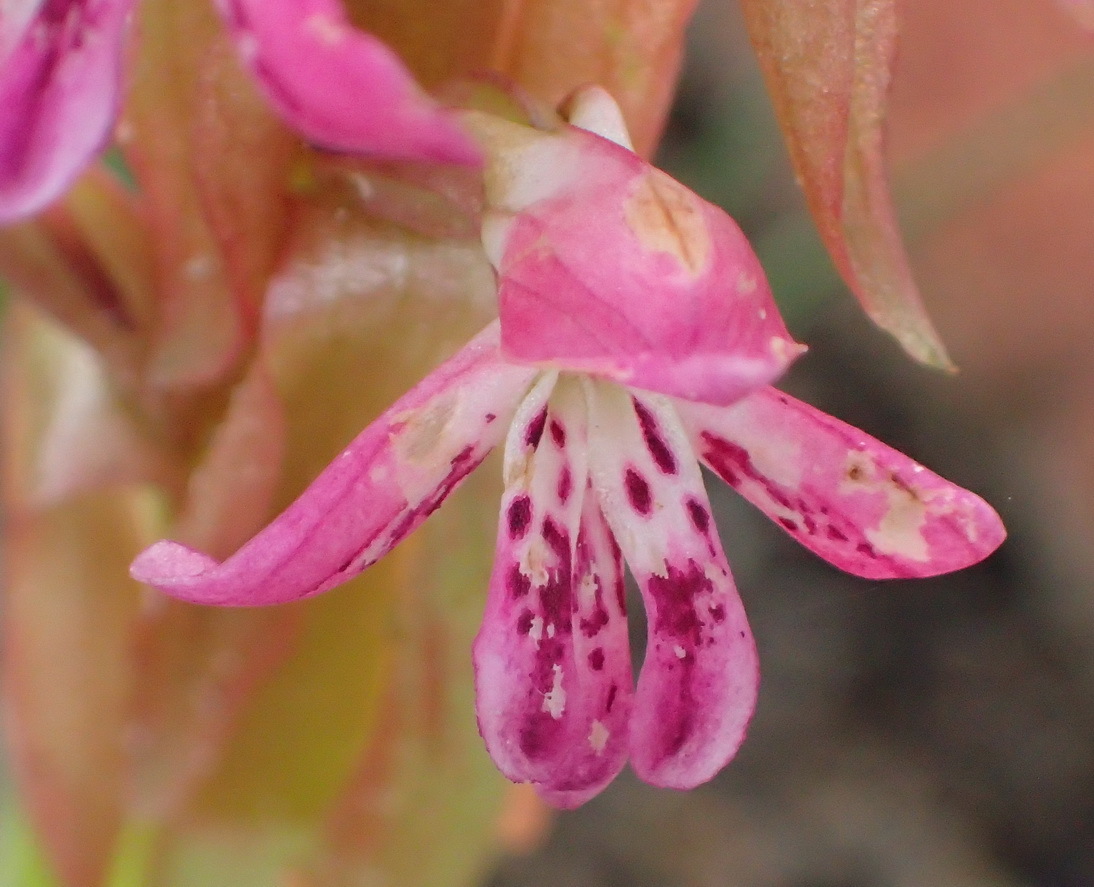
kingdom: Plantae
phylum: Tracheophyta
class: Liliopsida
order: Asparagales
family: Orchidaceae
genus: Satyrium
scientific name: Satyrium erectum
